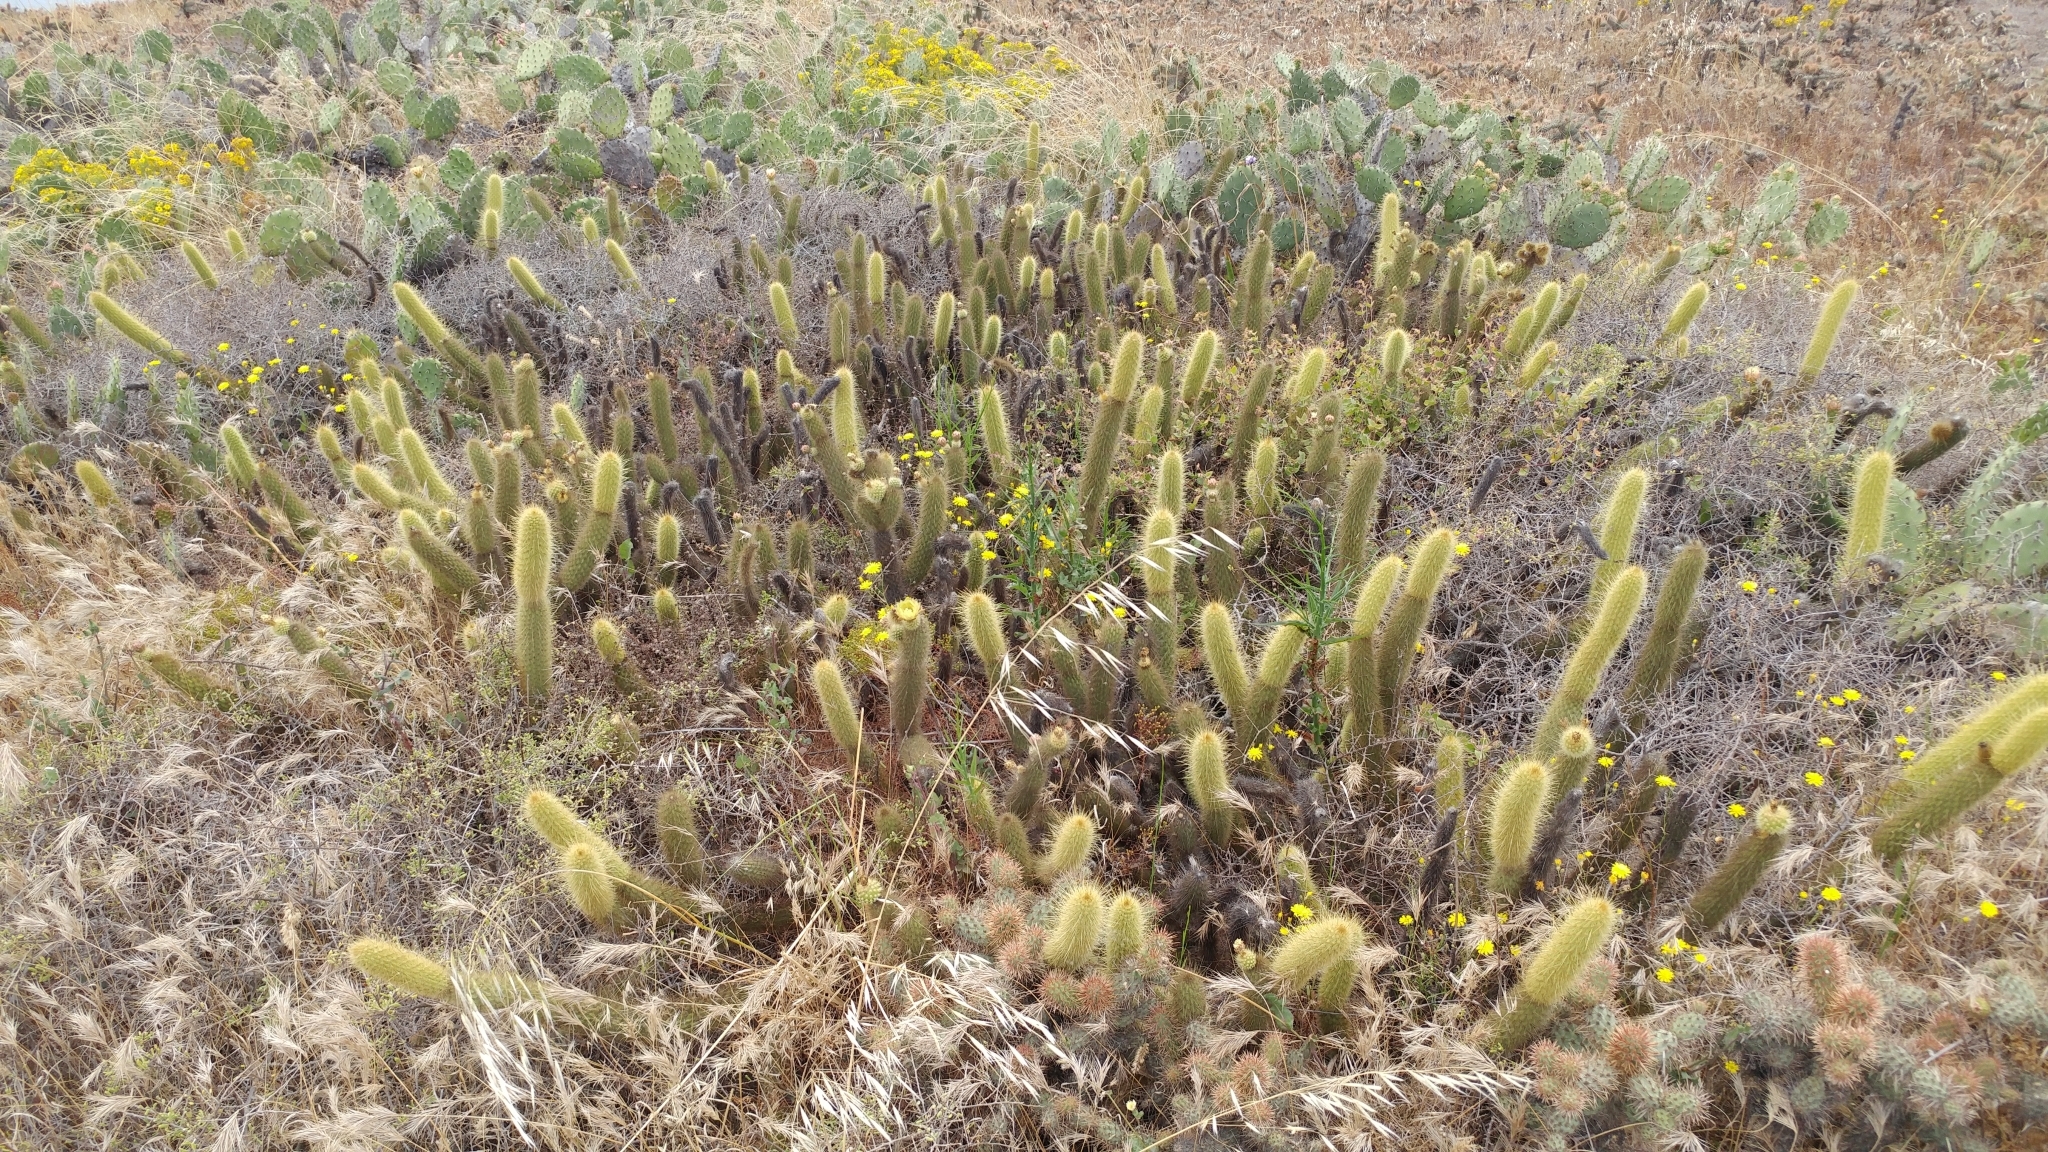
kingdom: Plantae
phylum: Tracheophyta
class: Magnoliopsida
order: Caryophyllales
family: Cactaceae
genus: Bergerocactus
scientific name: Bergerocactus emoryi
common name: Golden snakecactus
